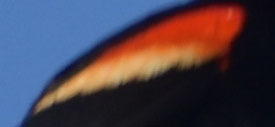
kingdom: Animalia
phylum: Chordata
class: Aves
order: Passeriformes
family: Icteridae
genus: Agelaius
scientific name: Agelaius phoeniceus
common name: Red-winged blackbird
